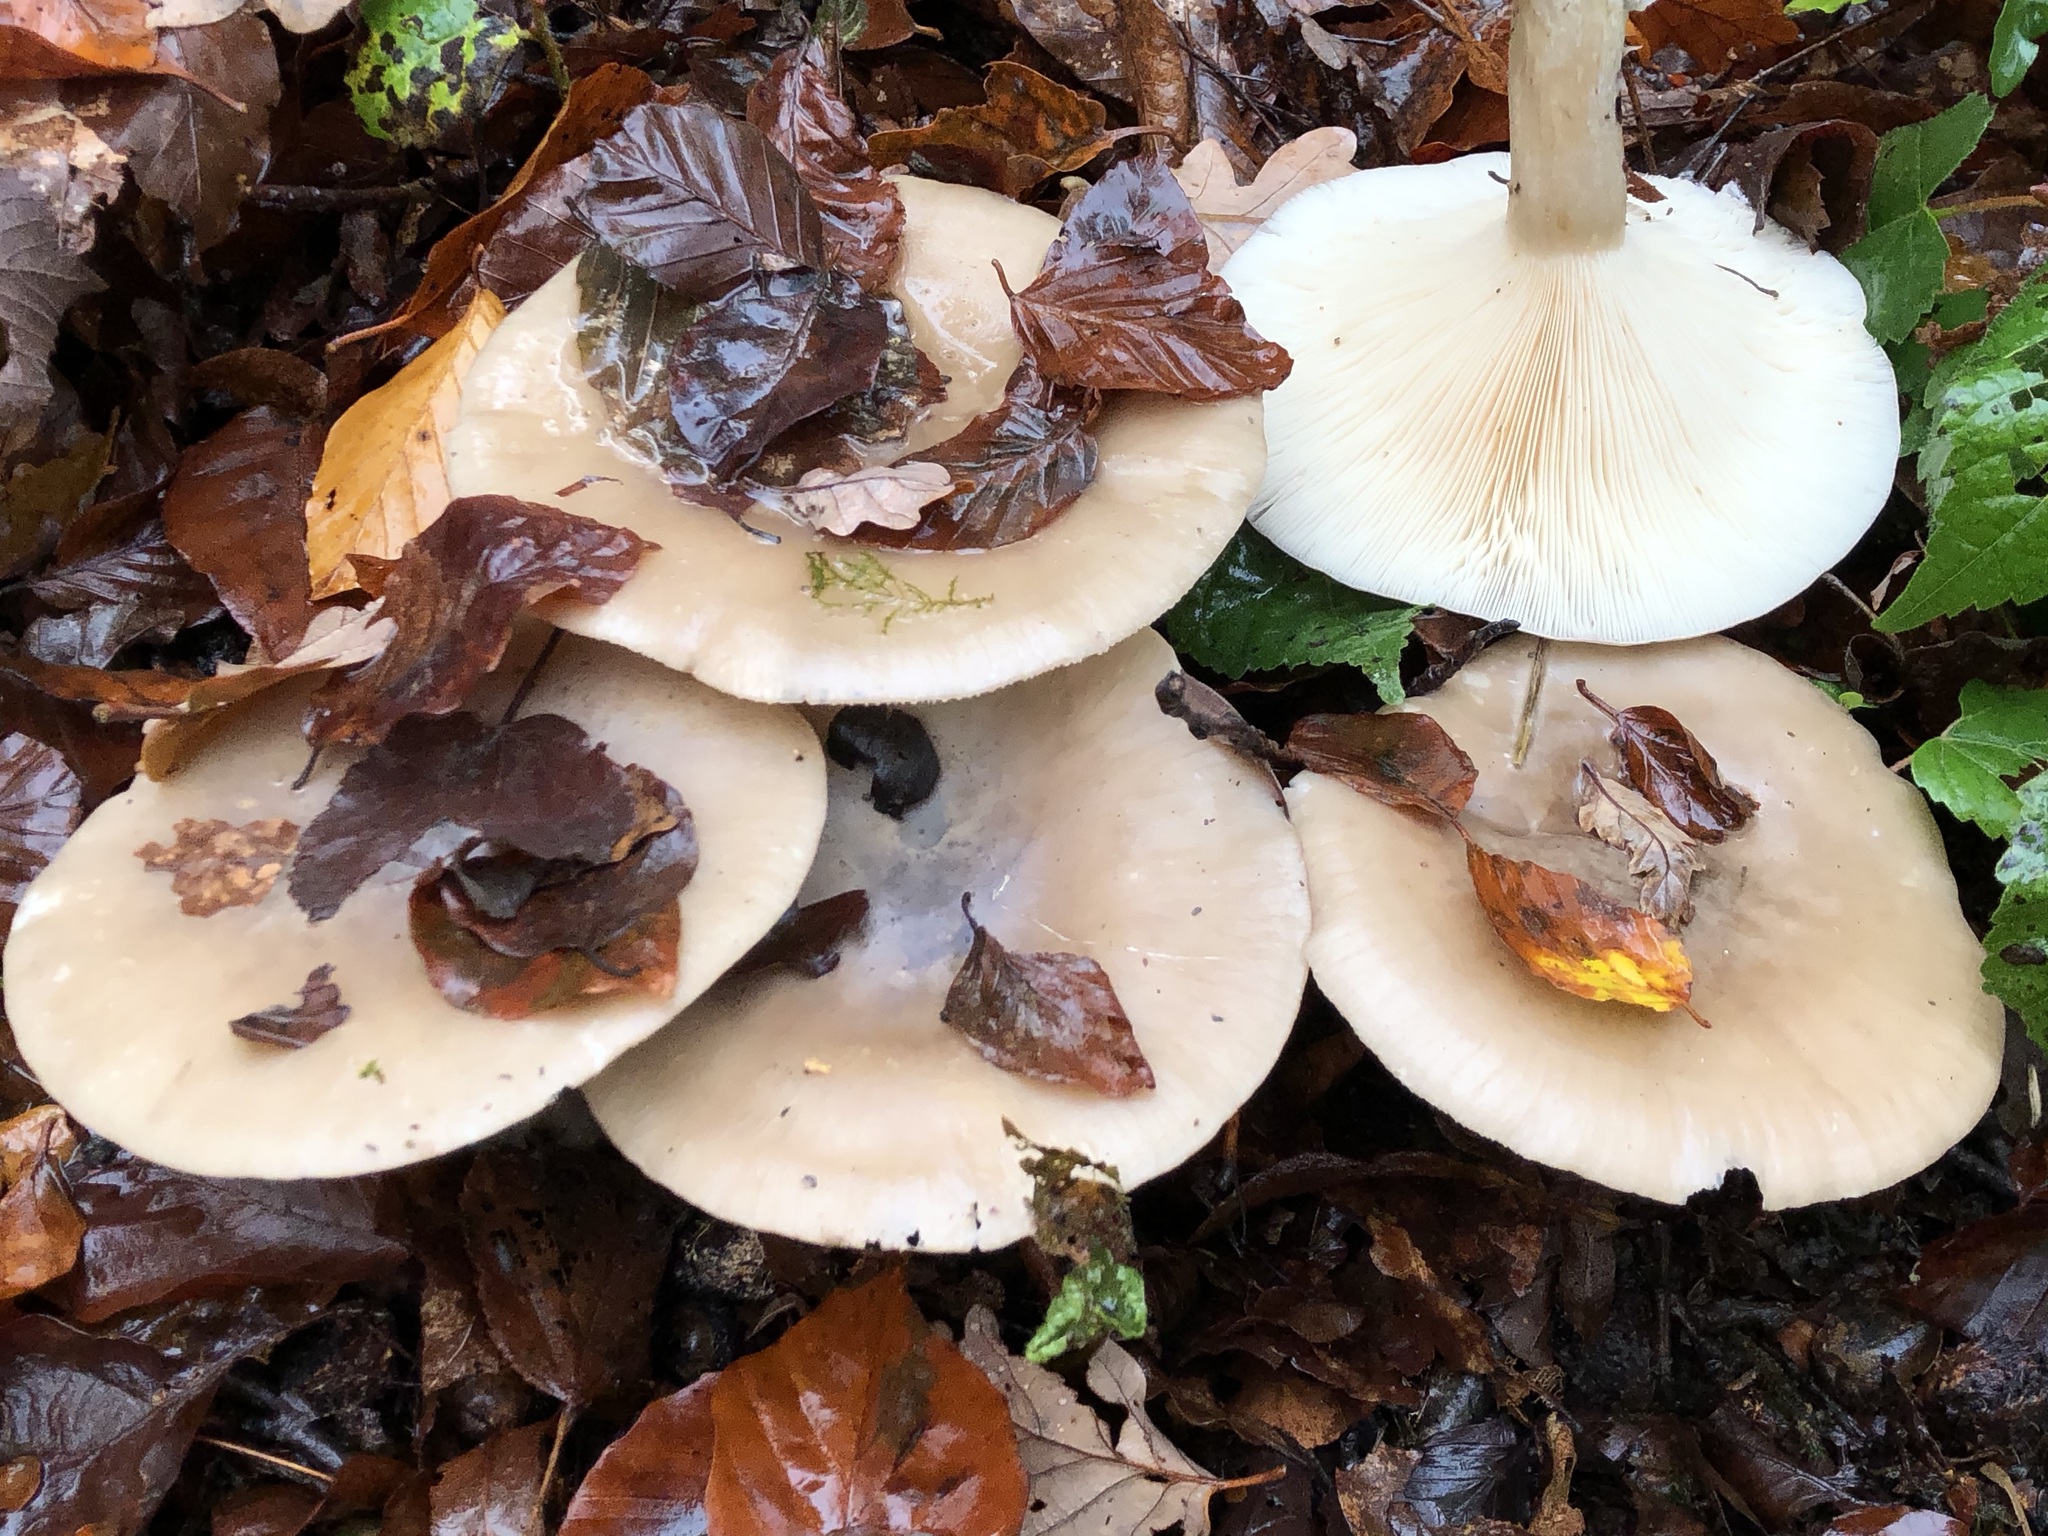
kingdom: Fungi
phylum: Basidiomycota
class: Agaricomycetes
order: Agaricales
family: Tricholomataceae
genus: Clitocybe
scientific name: Clitocybe nebularis
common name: Clouded agaric
